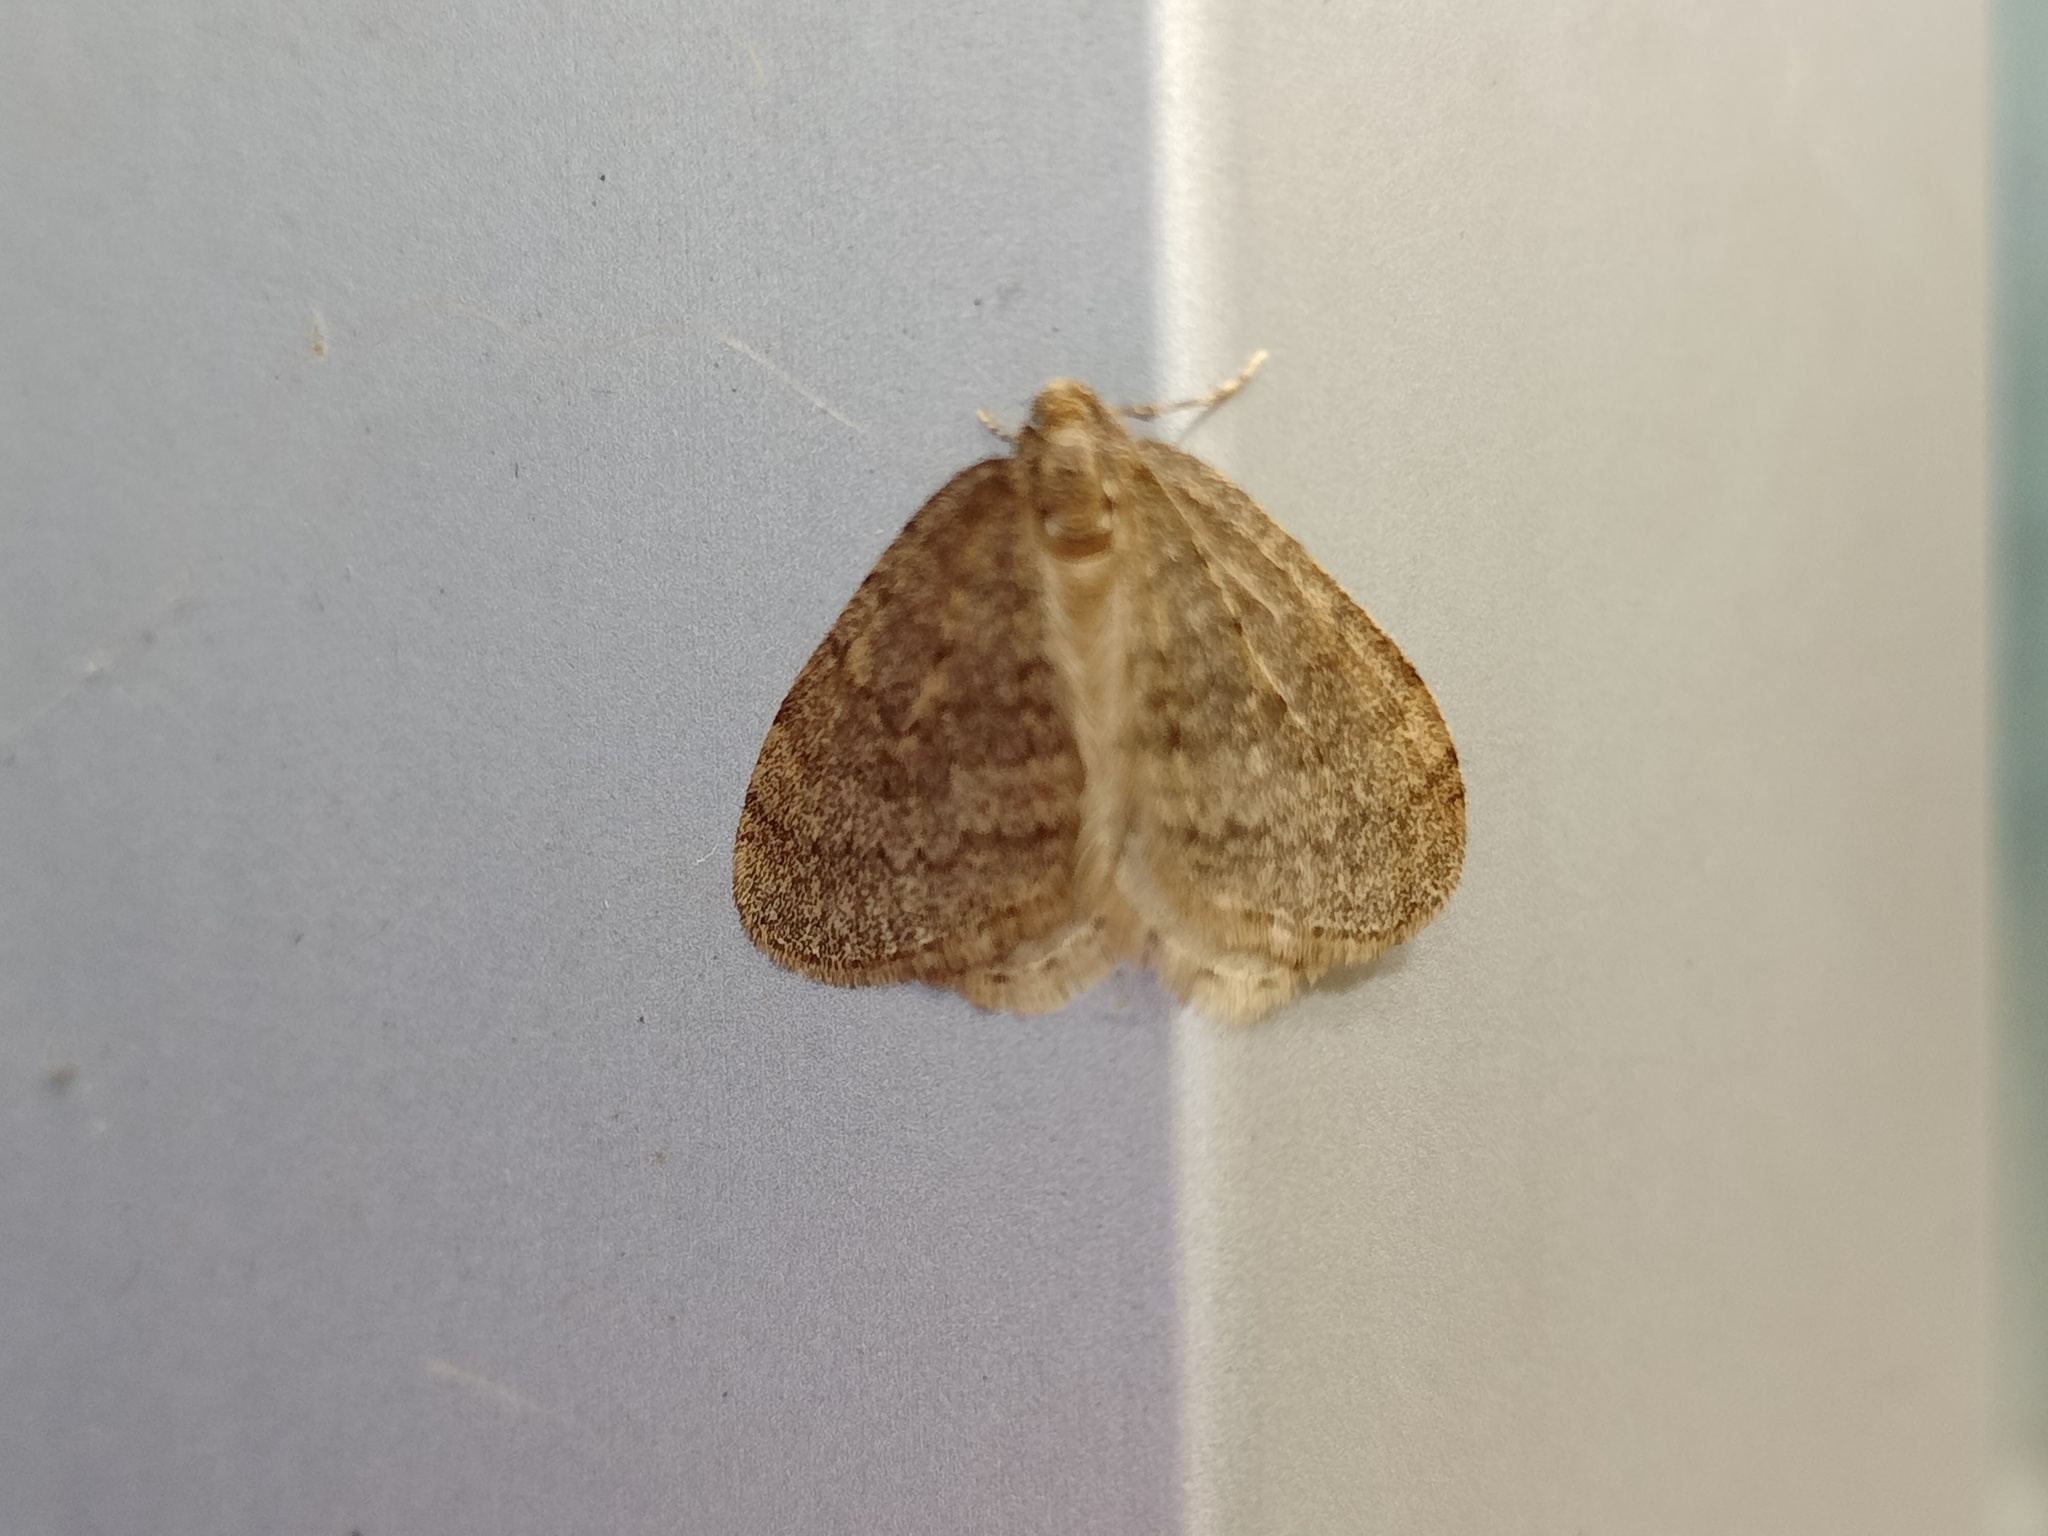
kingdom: Animalia
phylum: Arthropoda
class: Insecta
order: Lepidoptera
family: Geometridae
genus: Operophtera
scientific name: Operophtera brumata
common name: Winter moth
